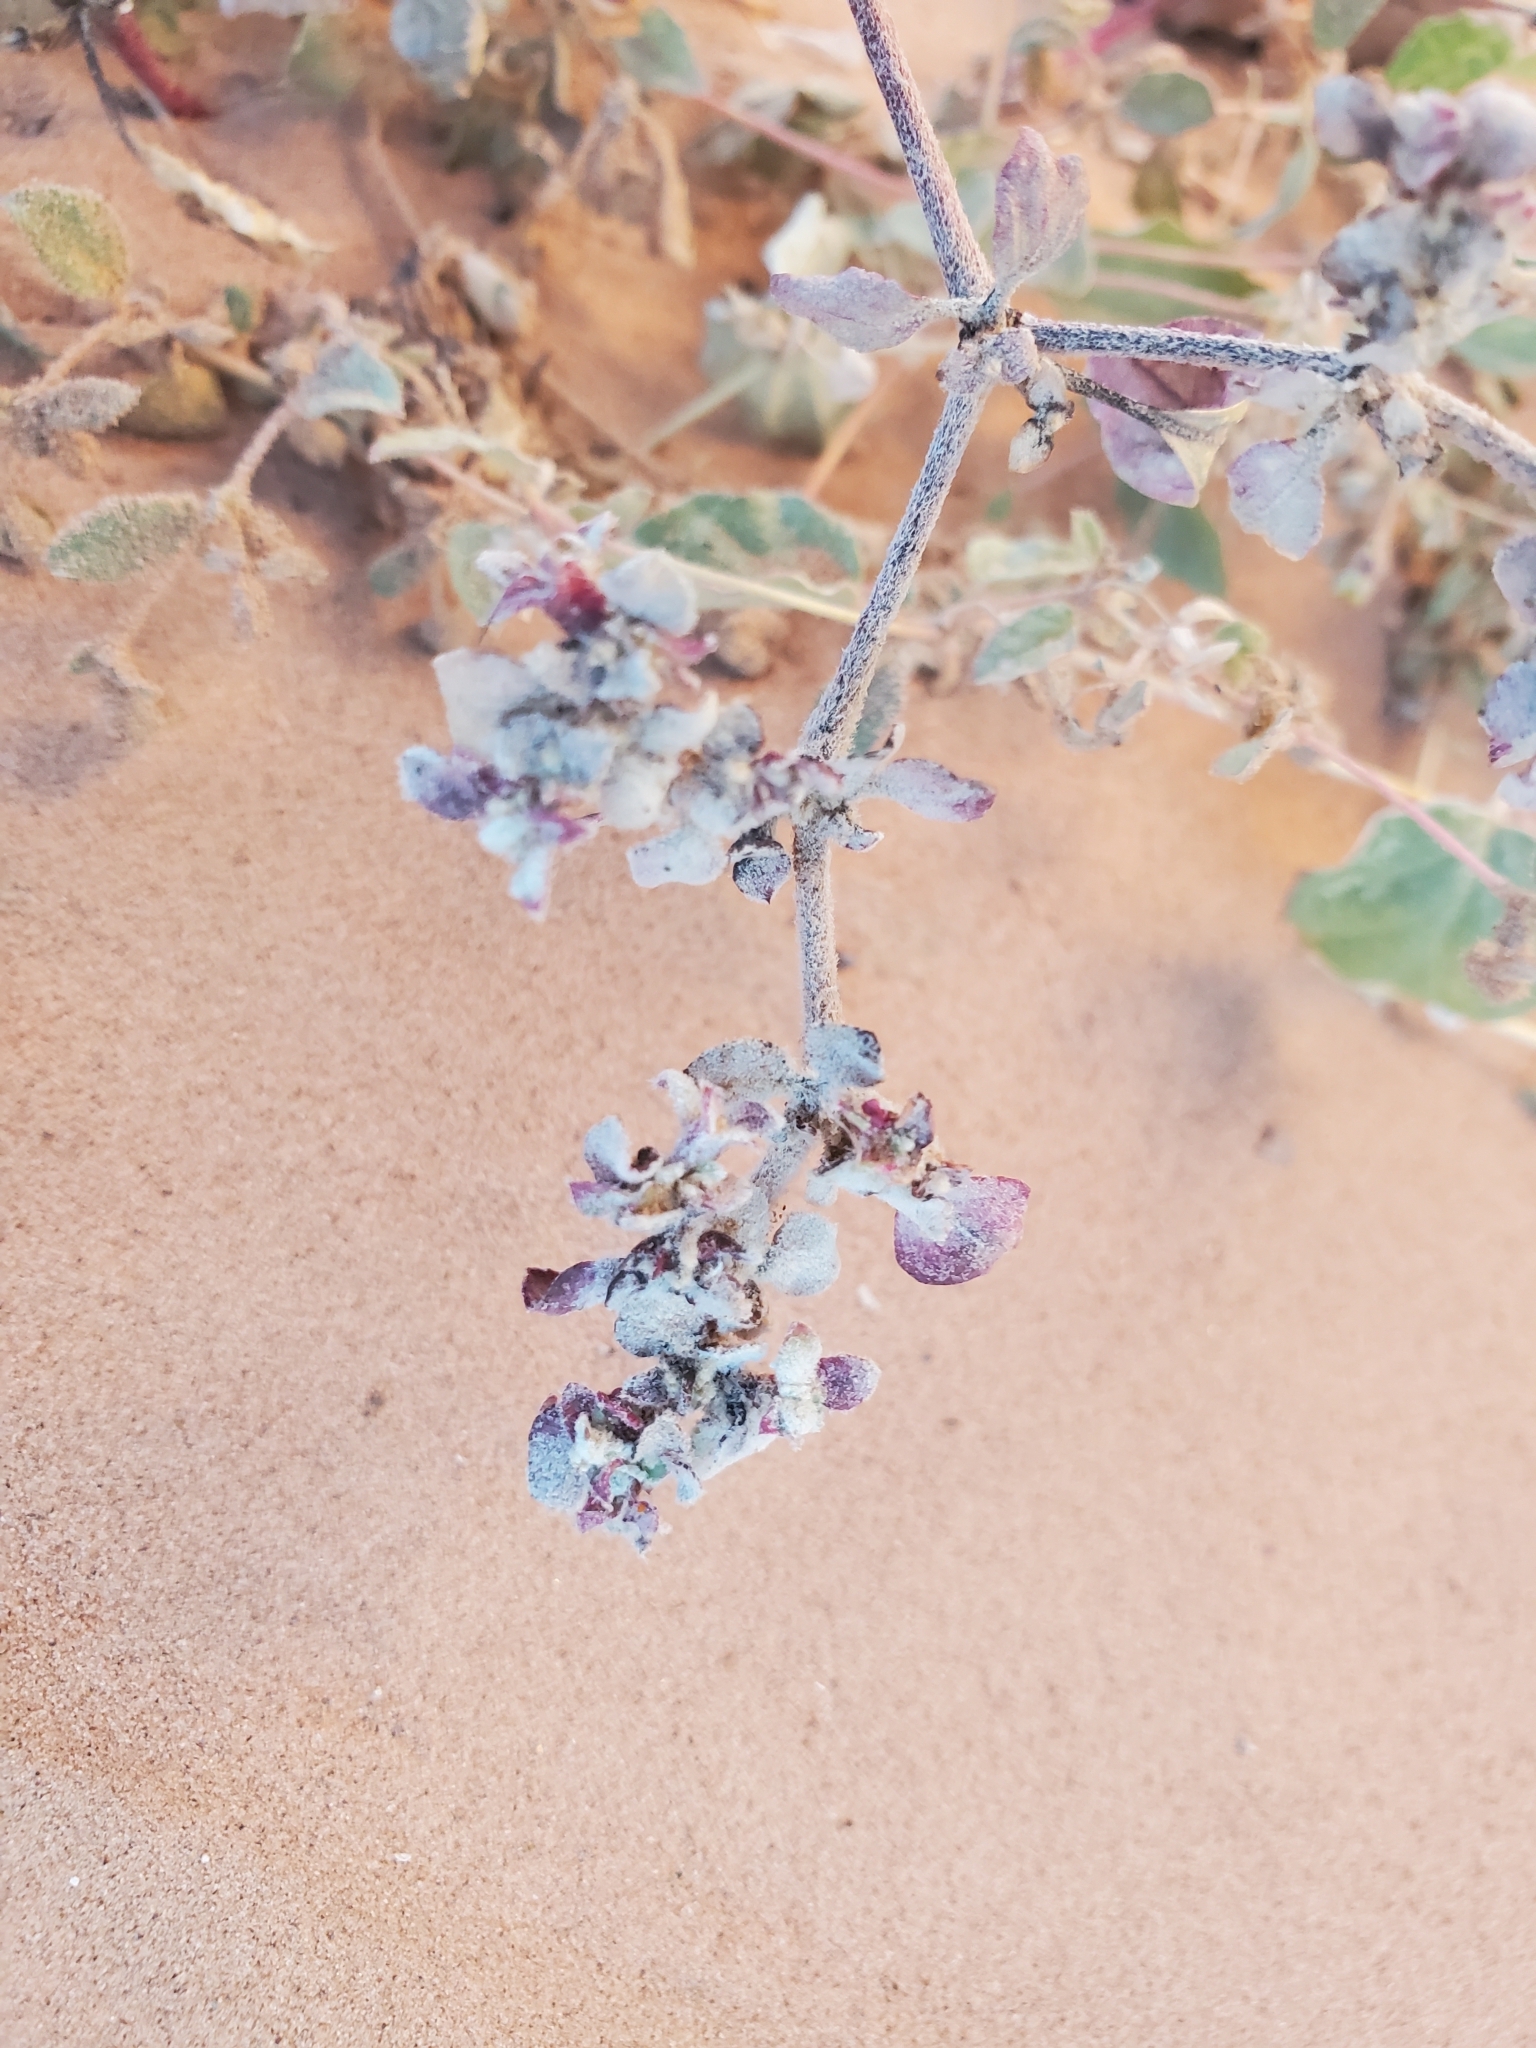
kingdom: Plantae
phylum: Tracheophyta
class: Magnoliopsida
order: Caryophyllales
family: Amaranthaceae
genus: Tidestromia
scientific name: Tidestromia lanuginosa
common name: Woolly tidestromia
